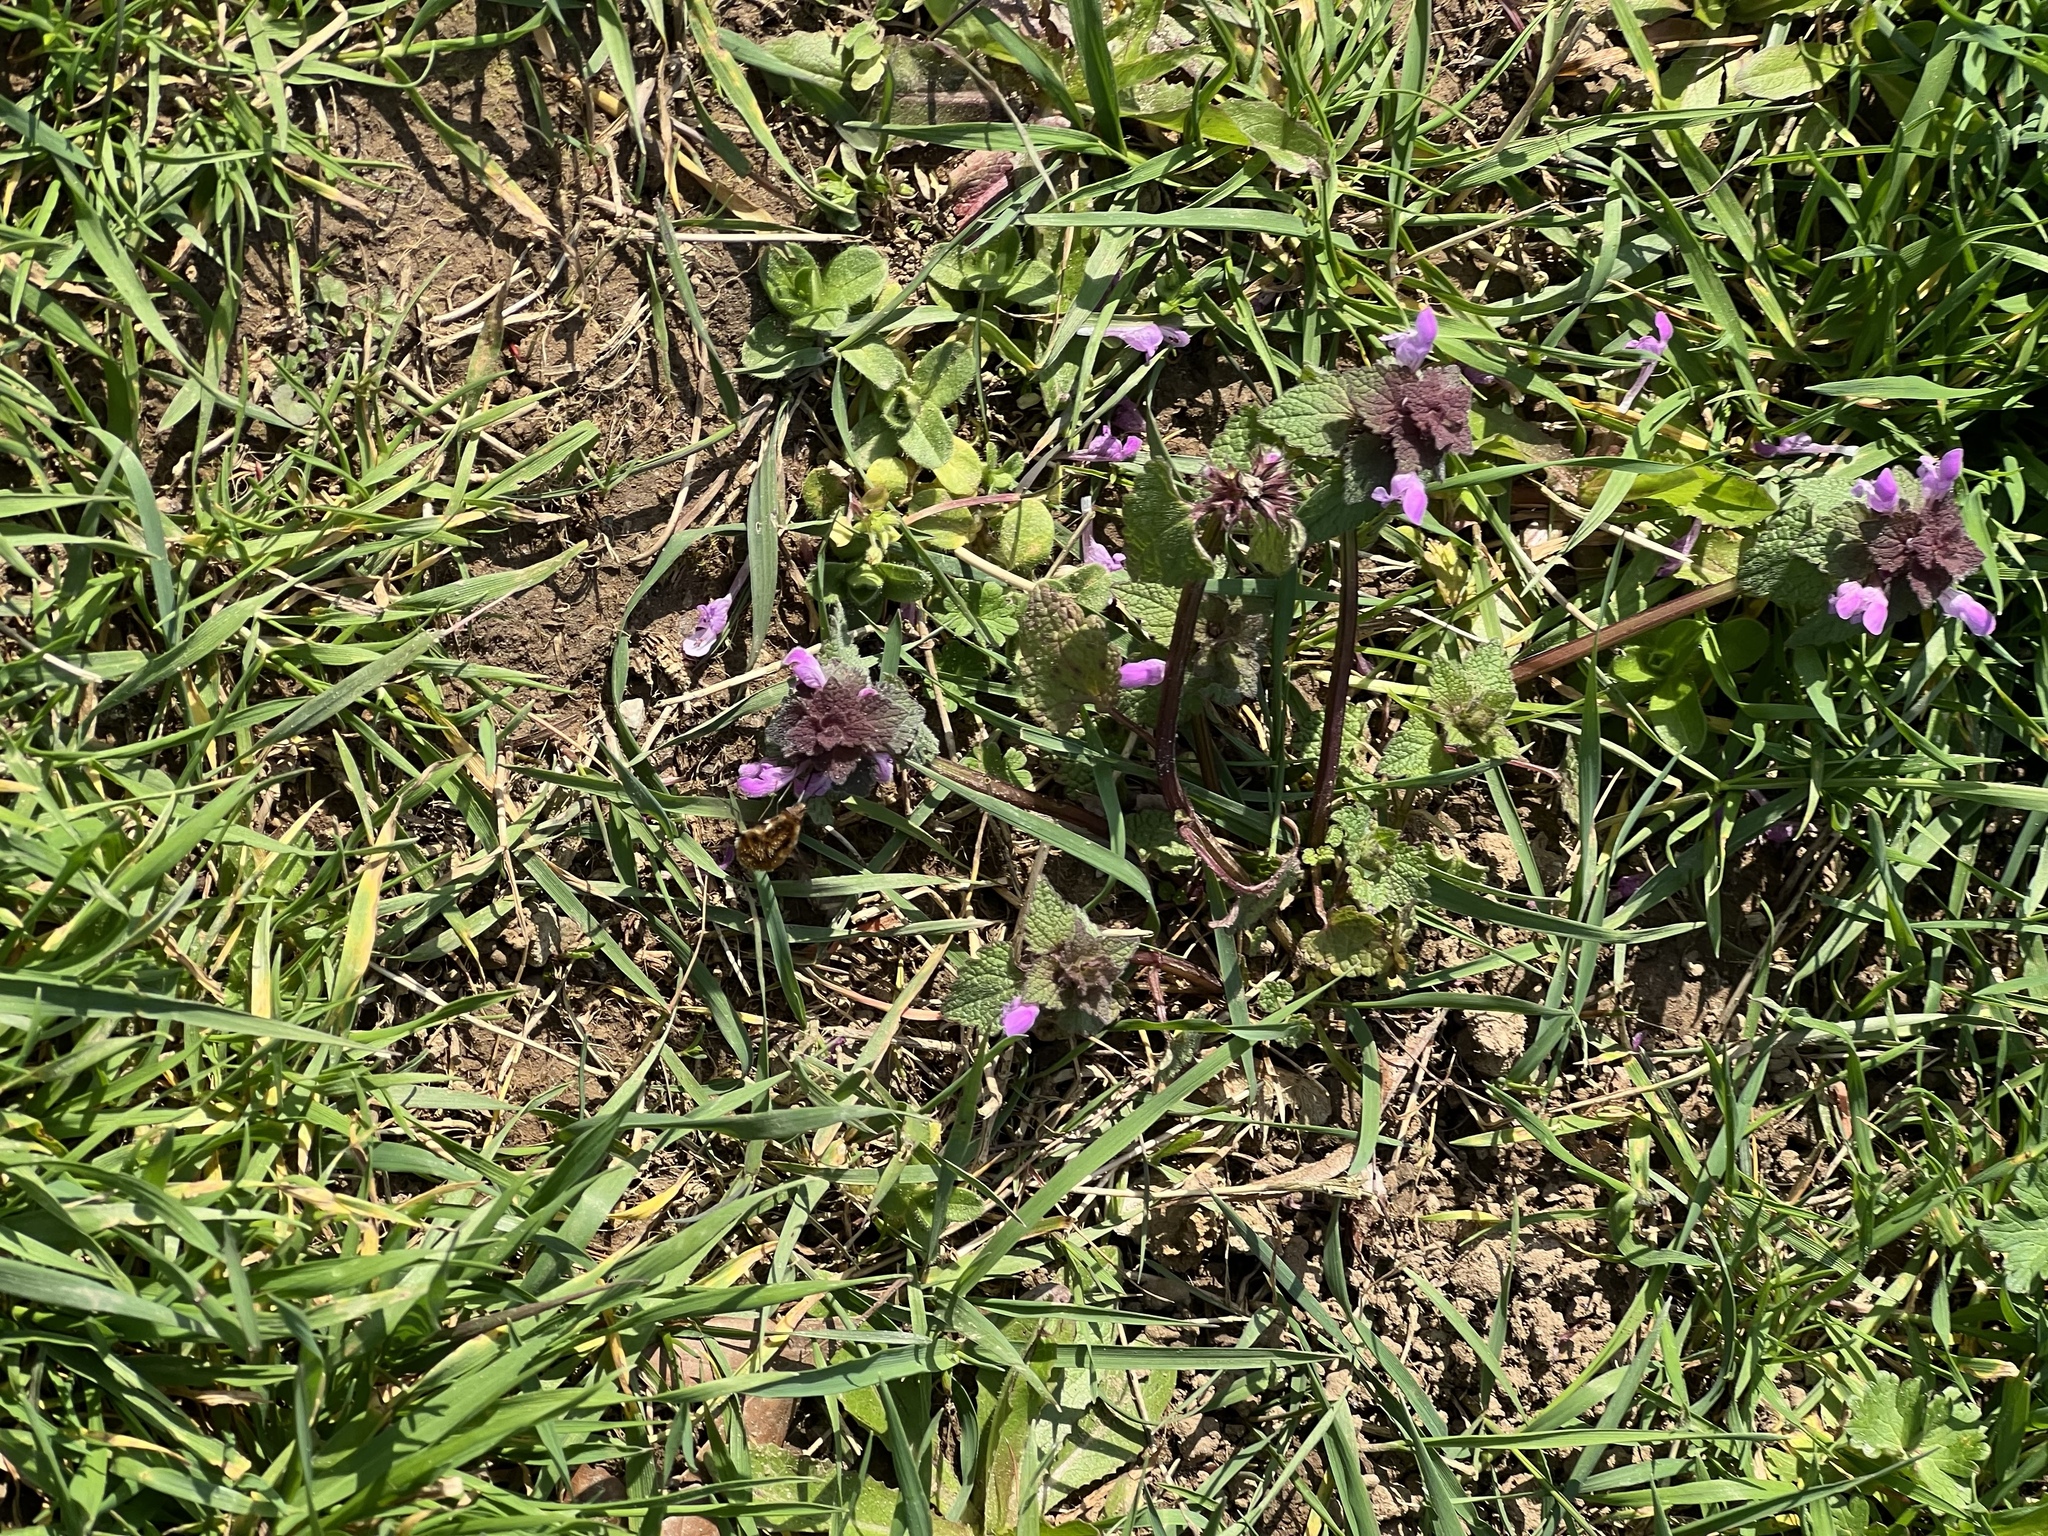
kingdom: Plantae
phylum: Tracheophyta
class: Magnoliopsida
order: Lamiales
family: Lamiaceae
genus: Lamium
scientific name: Lamium purpureum
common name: Red dead-nettle
